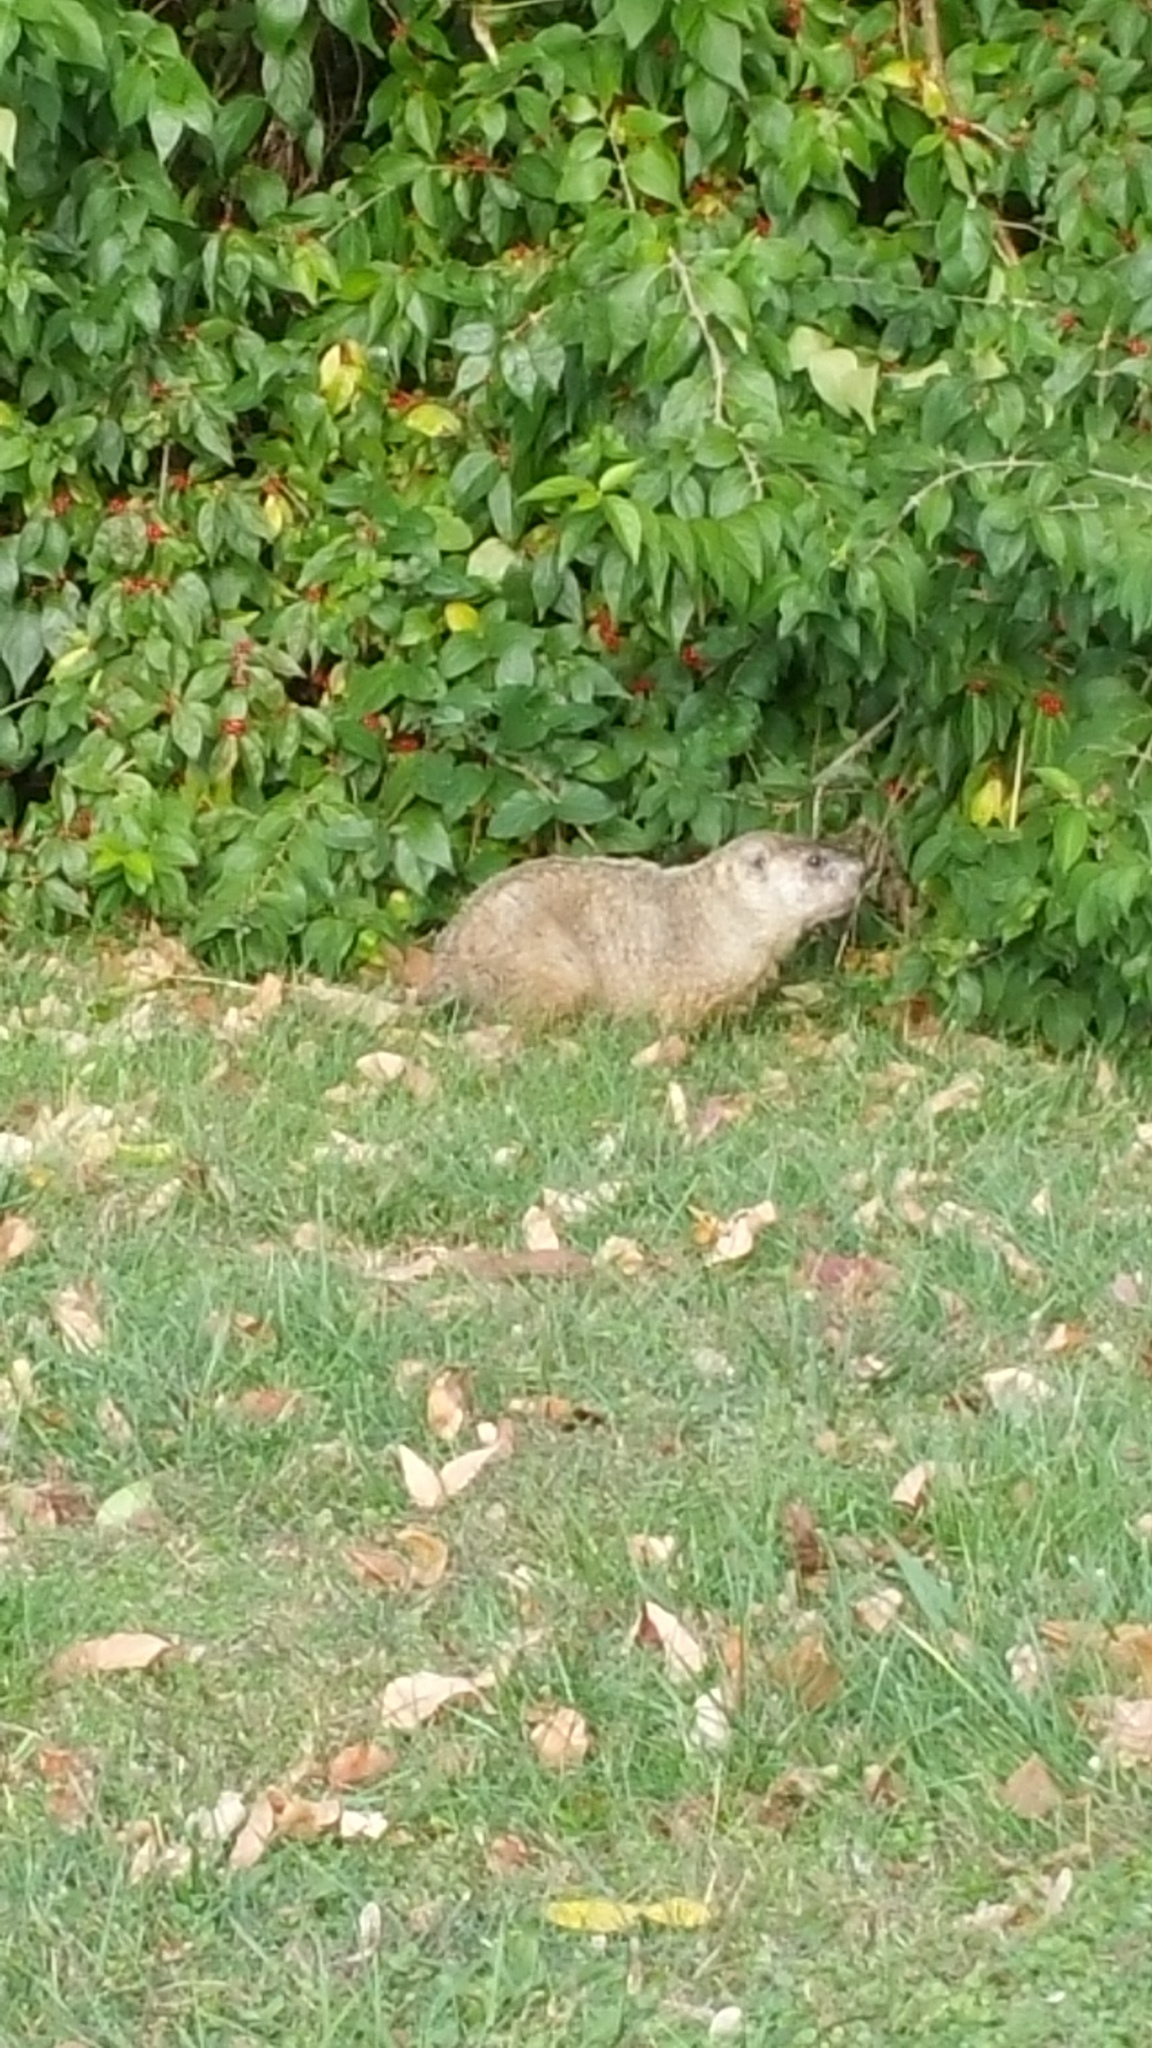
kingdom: Animalia
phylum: Chordata
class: Mammalia
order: Rodentia
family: Sciuridae
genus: Marmota
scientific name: Marmota monax
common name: Groundhog
